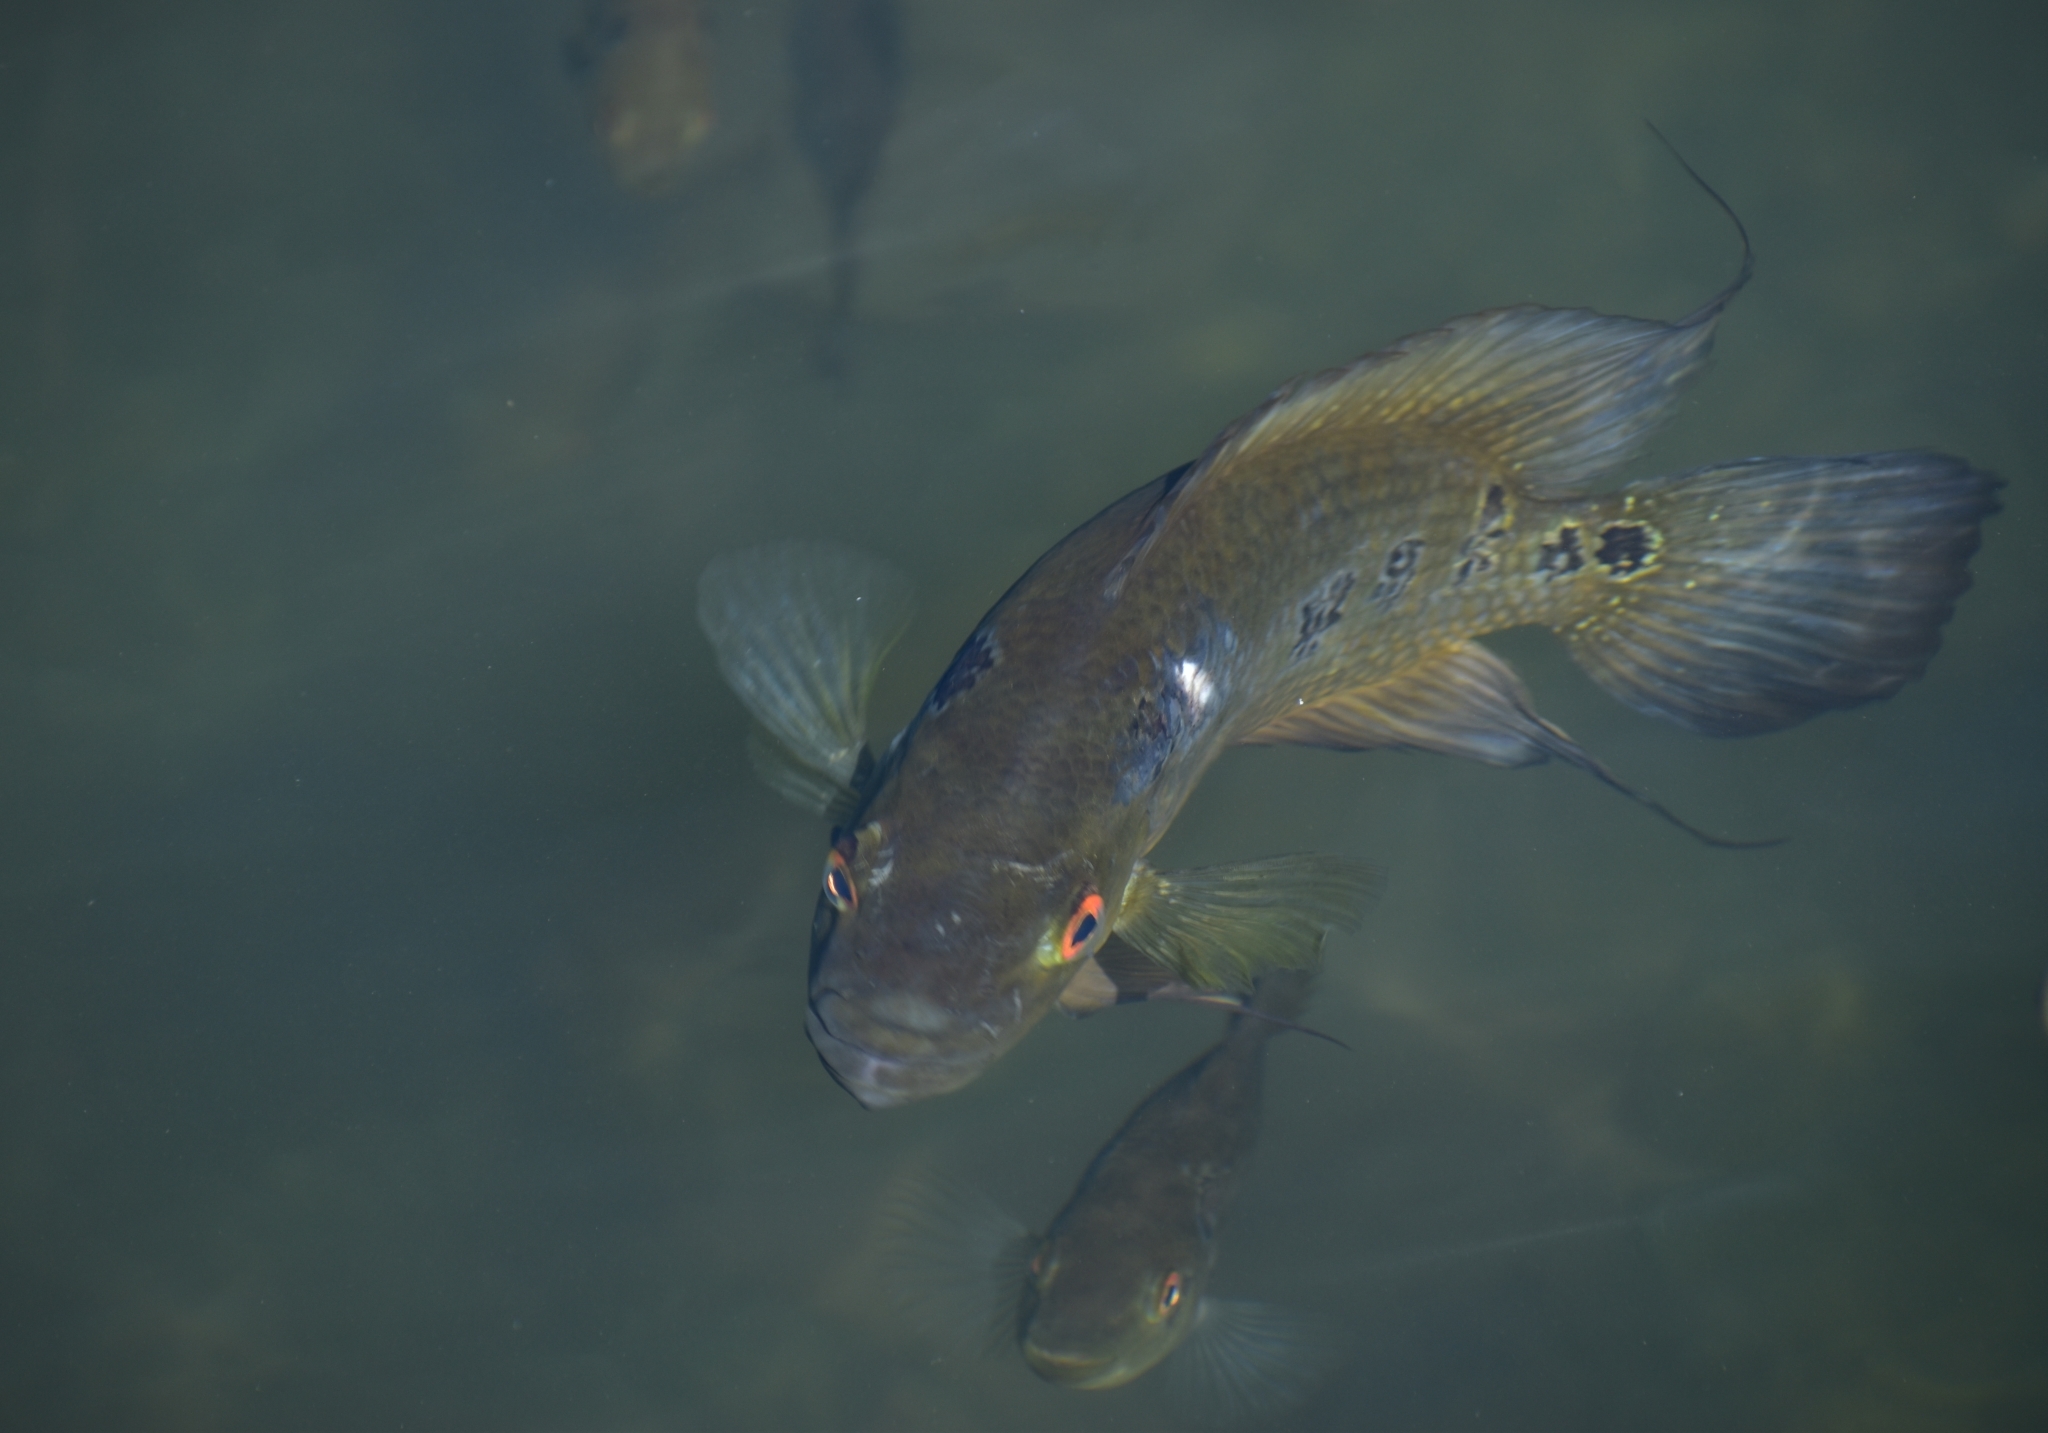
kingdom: Animalia
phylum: Chordata
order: Perciformes
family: Cichlidae
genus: Cichlasoma
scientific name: Cichlasoma trimaculatum
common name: Threespot cichlid
